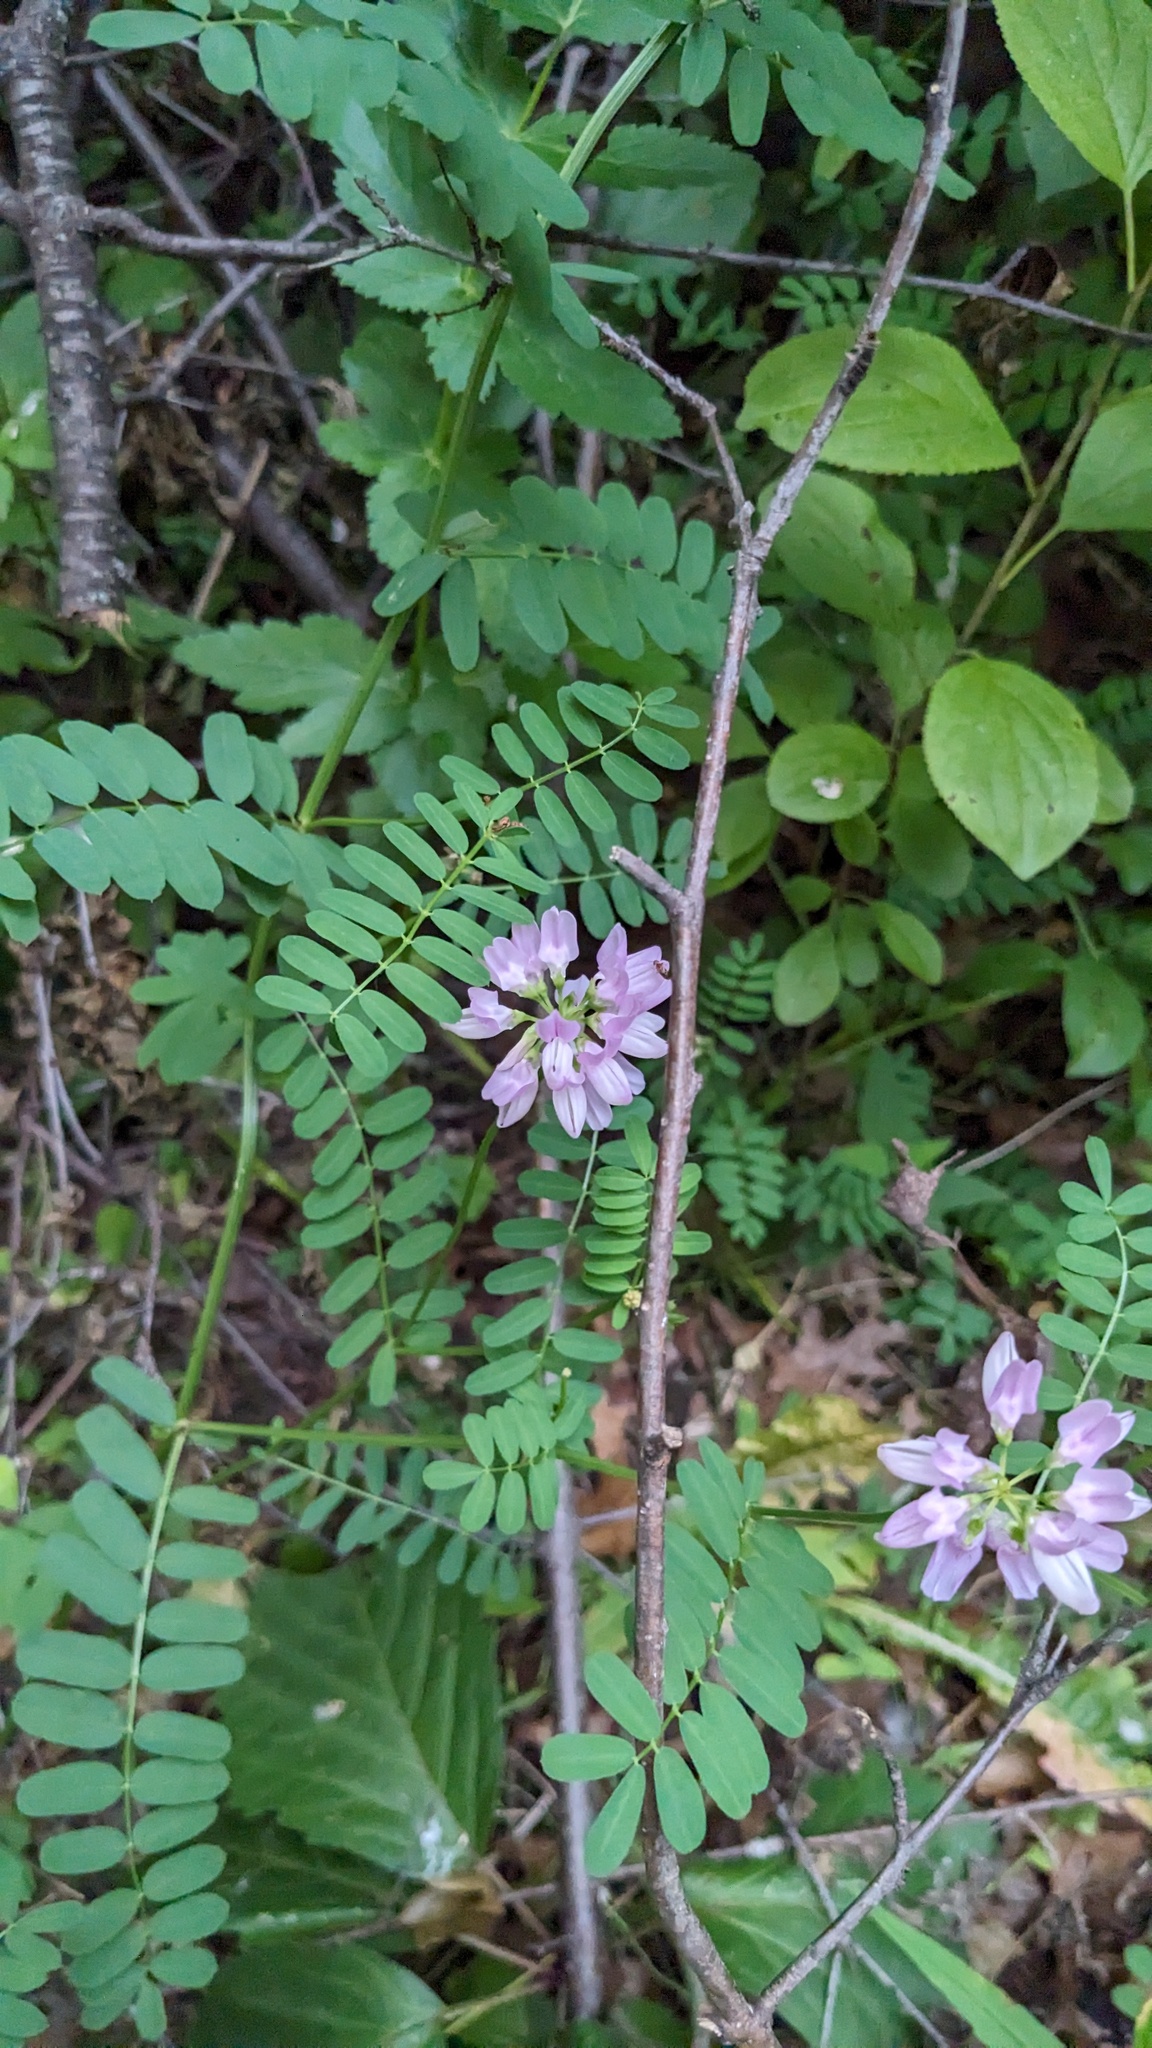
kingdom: Plantae
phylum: Tracheophyta
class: Magnoliopsida
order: Fabales
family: Fabaceae
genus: Coronilla
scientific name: Coronilla varia
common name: Crownvetch
